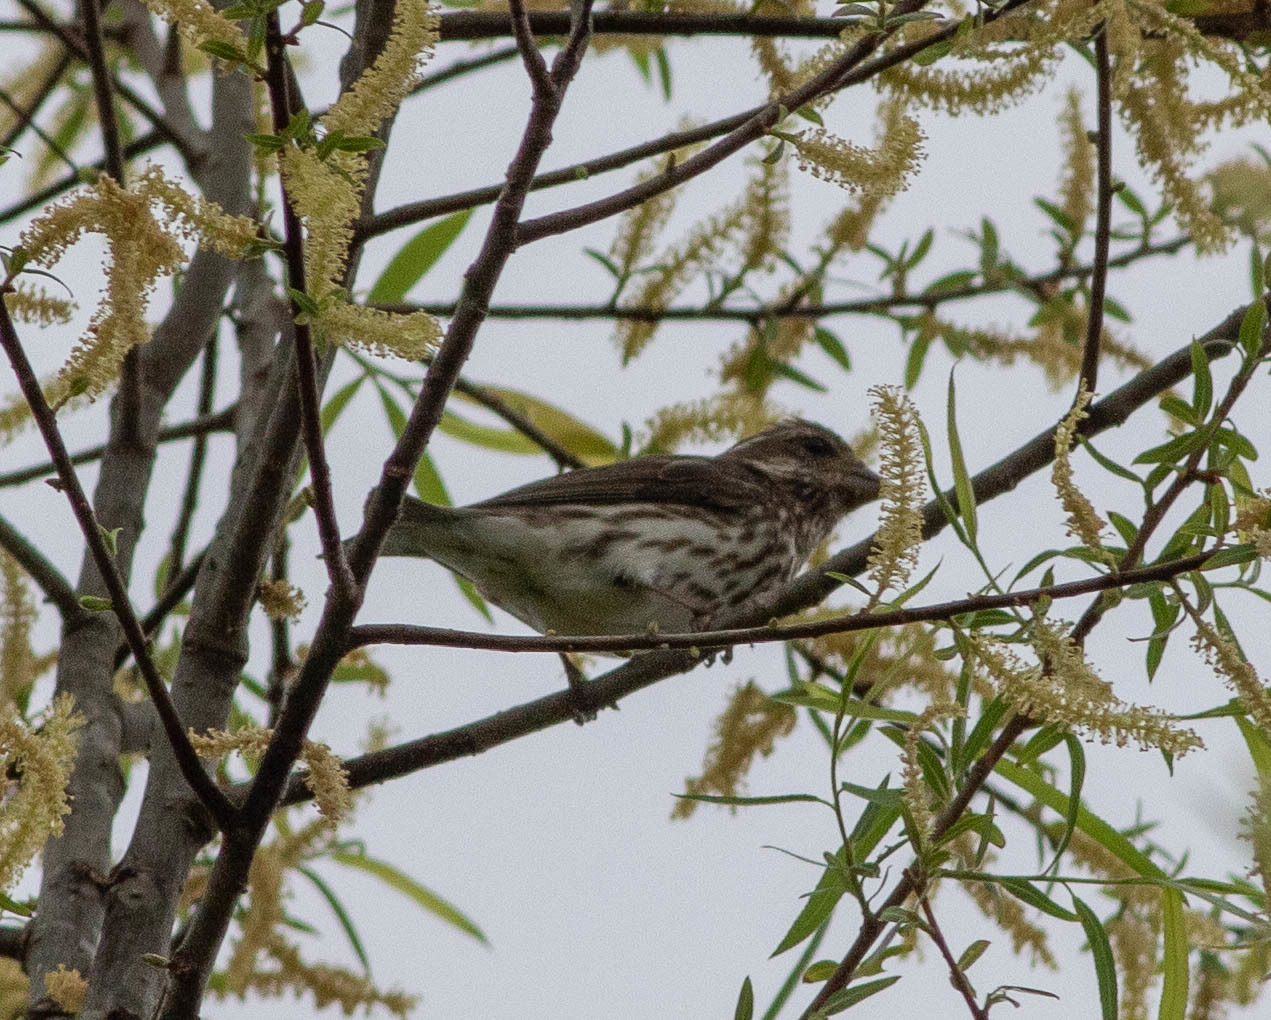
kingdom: Animalia
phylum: Chordata
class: Aves
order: Passeriformes
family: Fringillidae
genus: Haemorhous
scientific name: Haemorhous purpureus
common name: Purple finch
